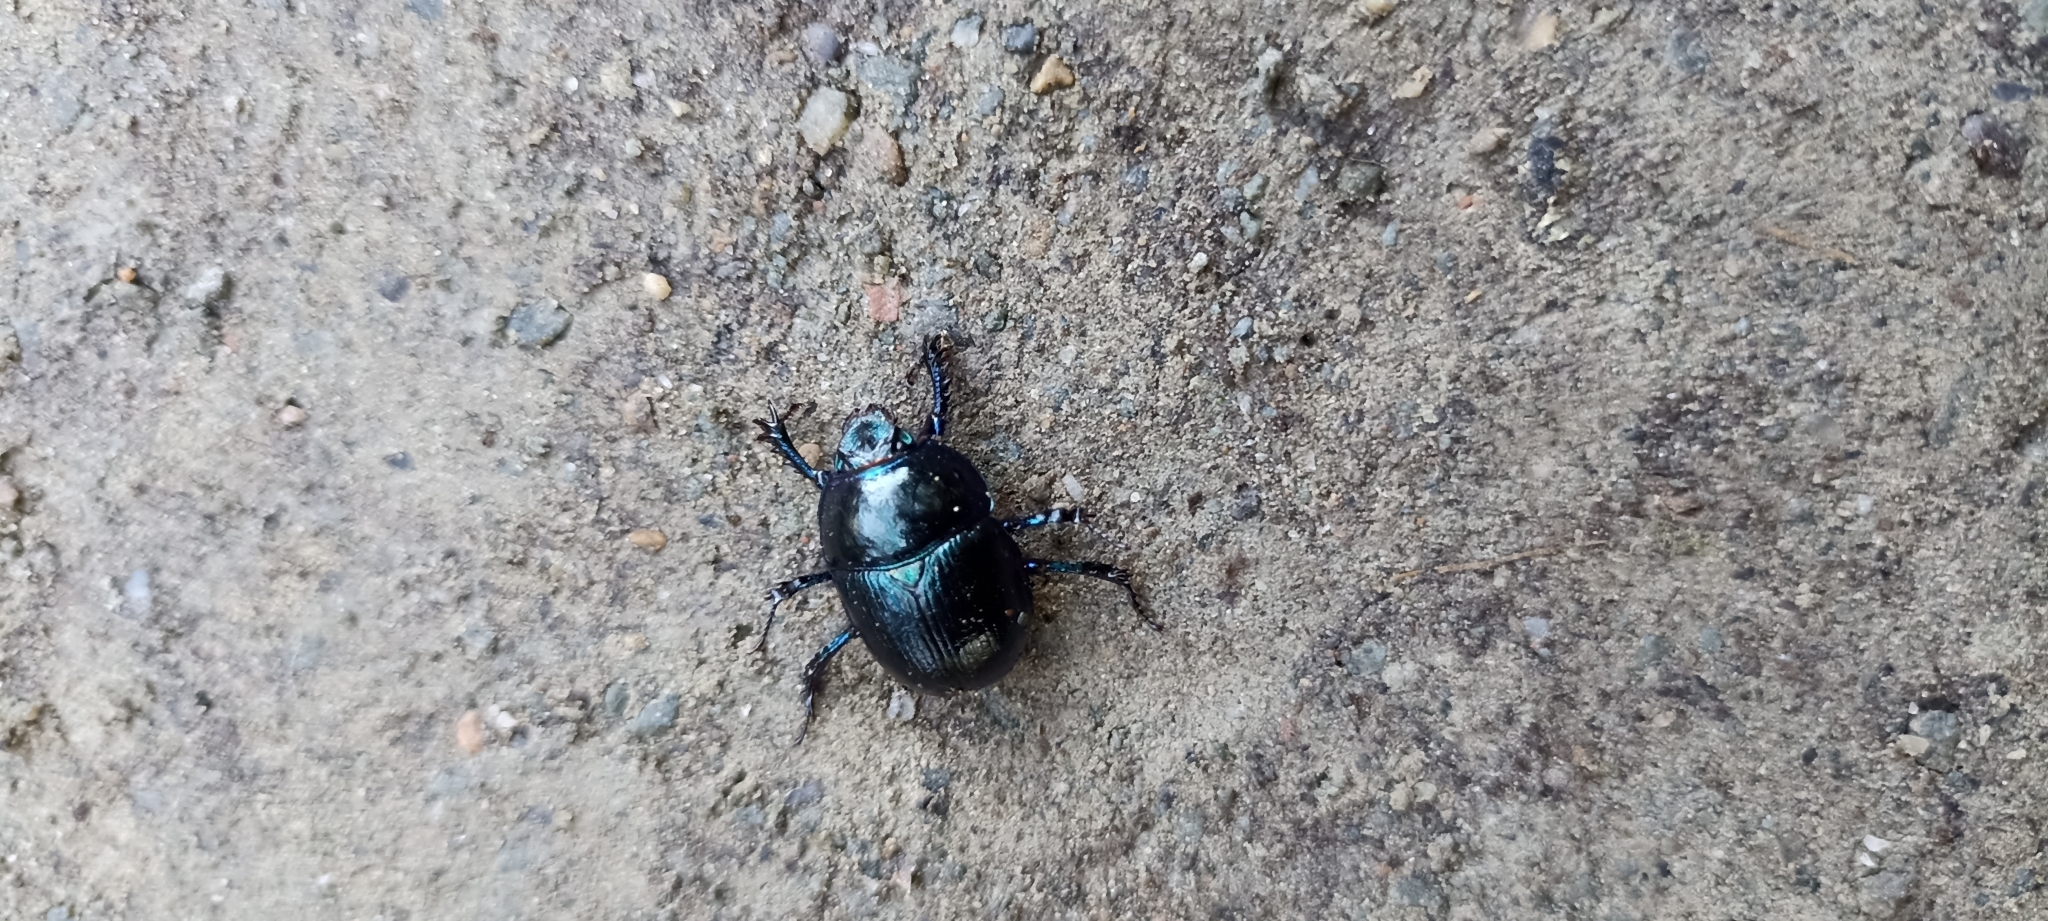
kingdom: Animalia
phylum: Arthropoda
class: Insecta
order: Coleoptera
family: Geotrupidae
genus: Anoplotrupes
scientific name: Anoplotrupes stercorosus
